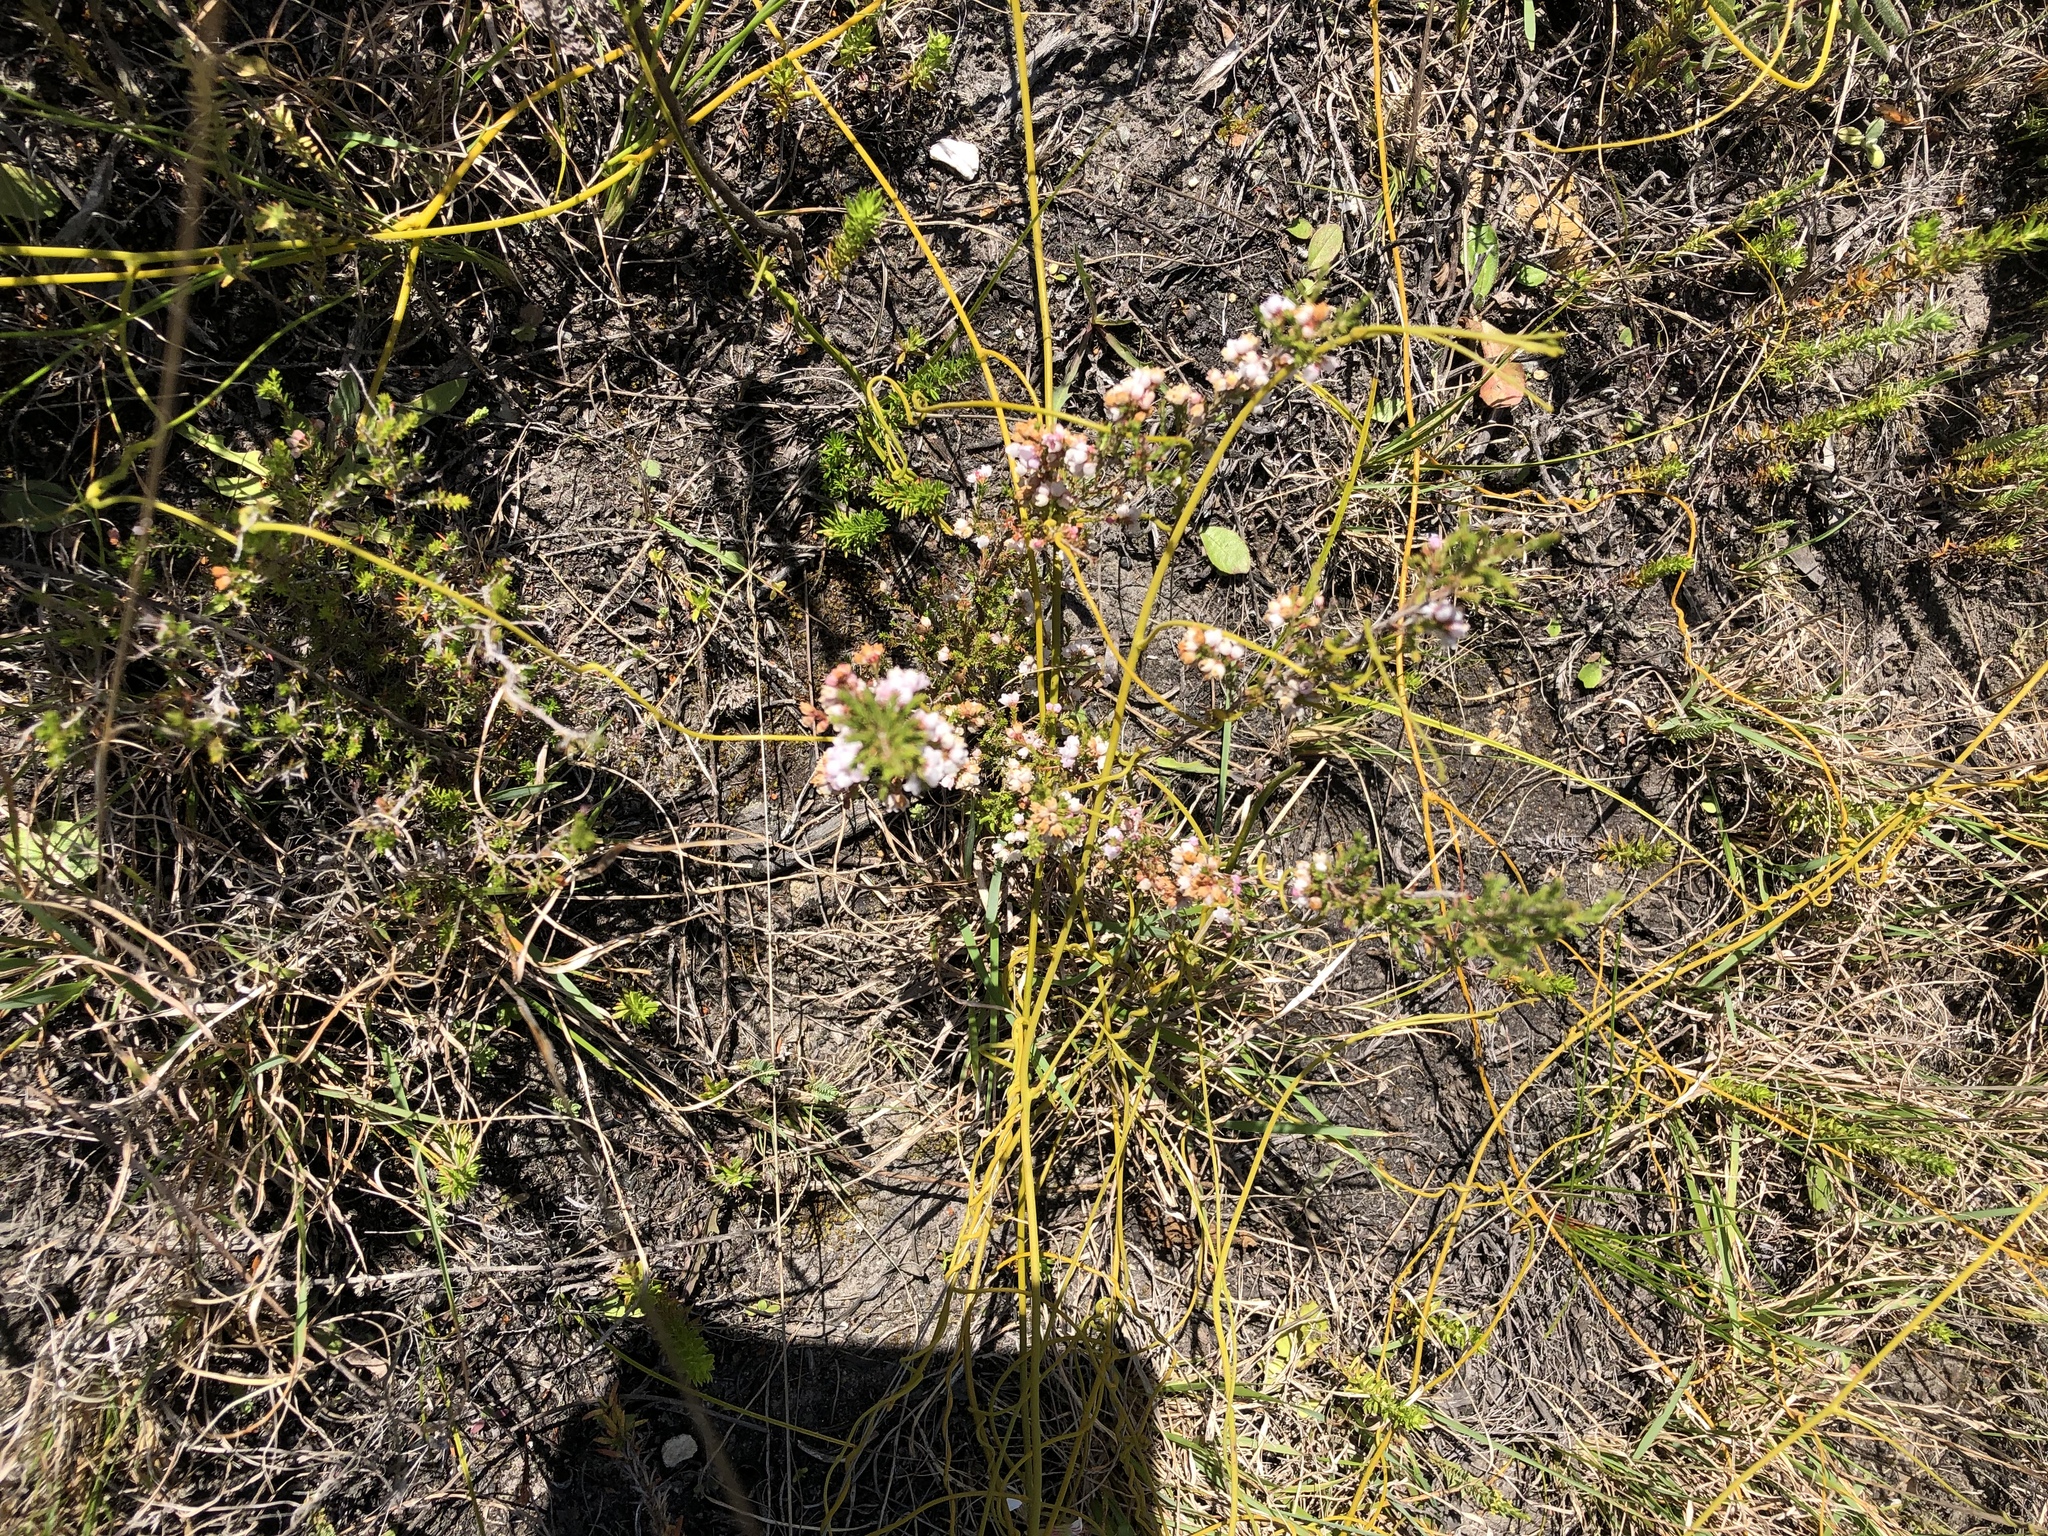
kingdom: Plantae
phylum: Tracheophyta
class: Magnoliopsida
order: Ericales
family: Ericaceae
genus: Erica
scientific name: Erica quadrangularis
